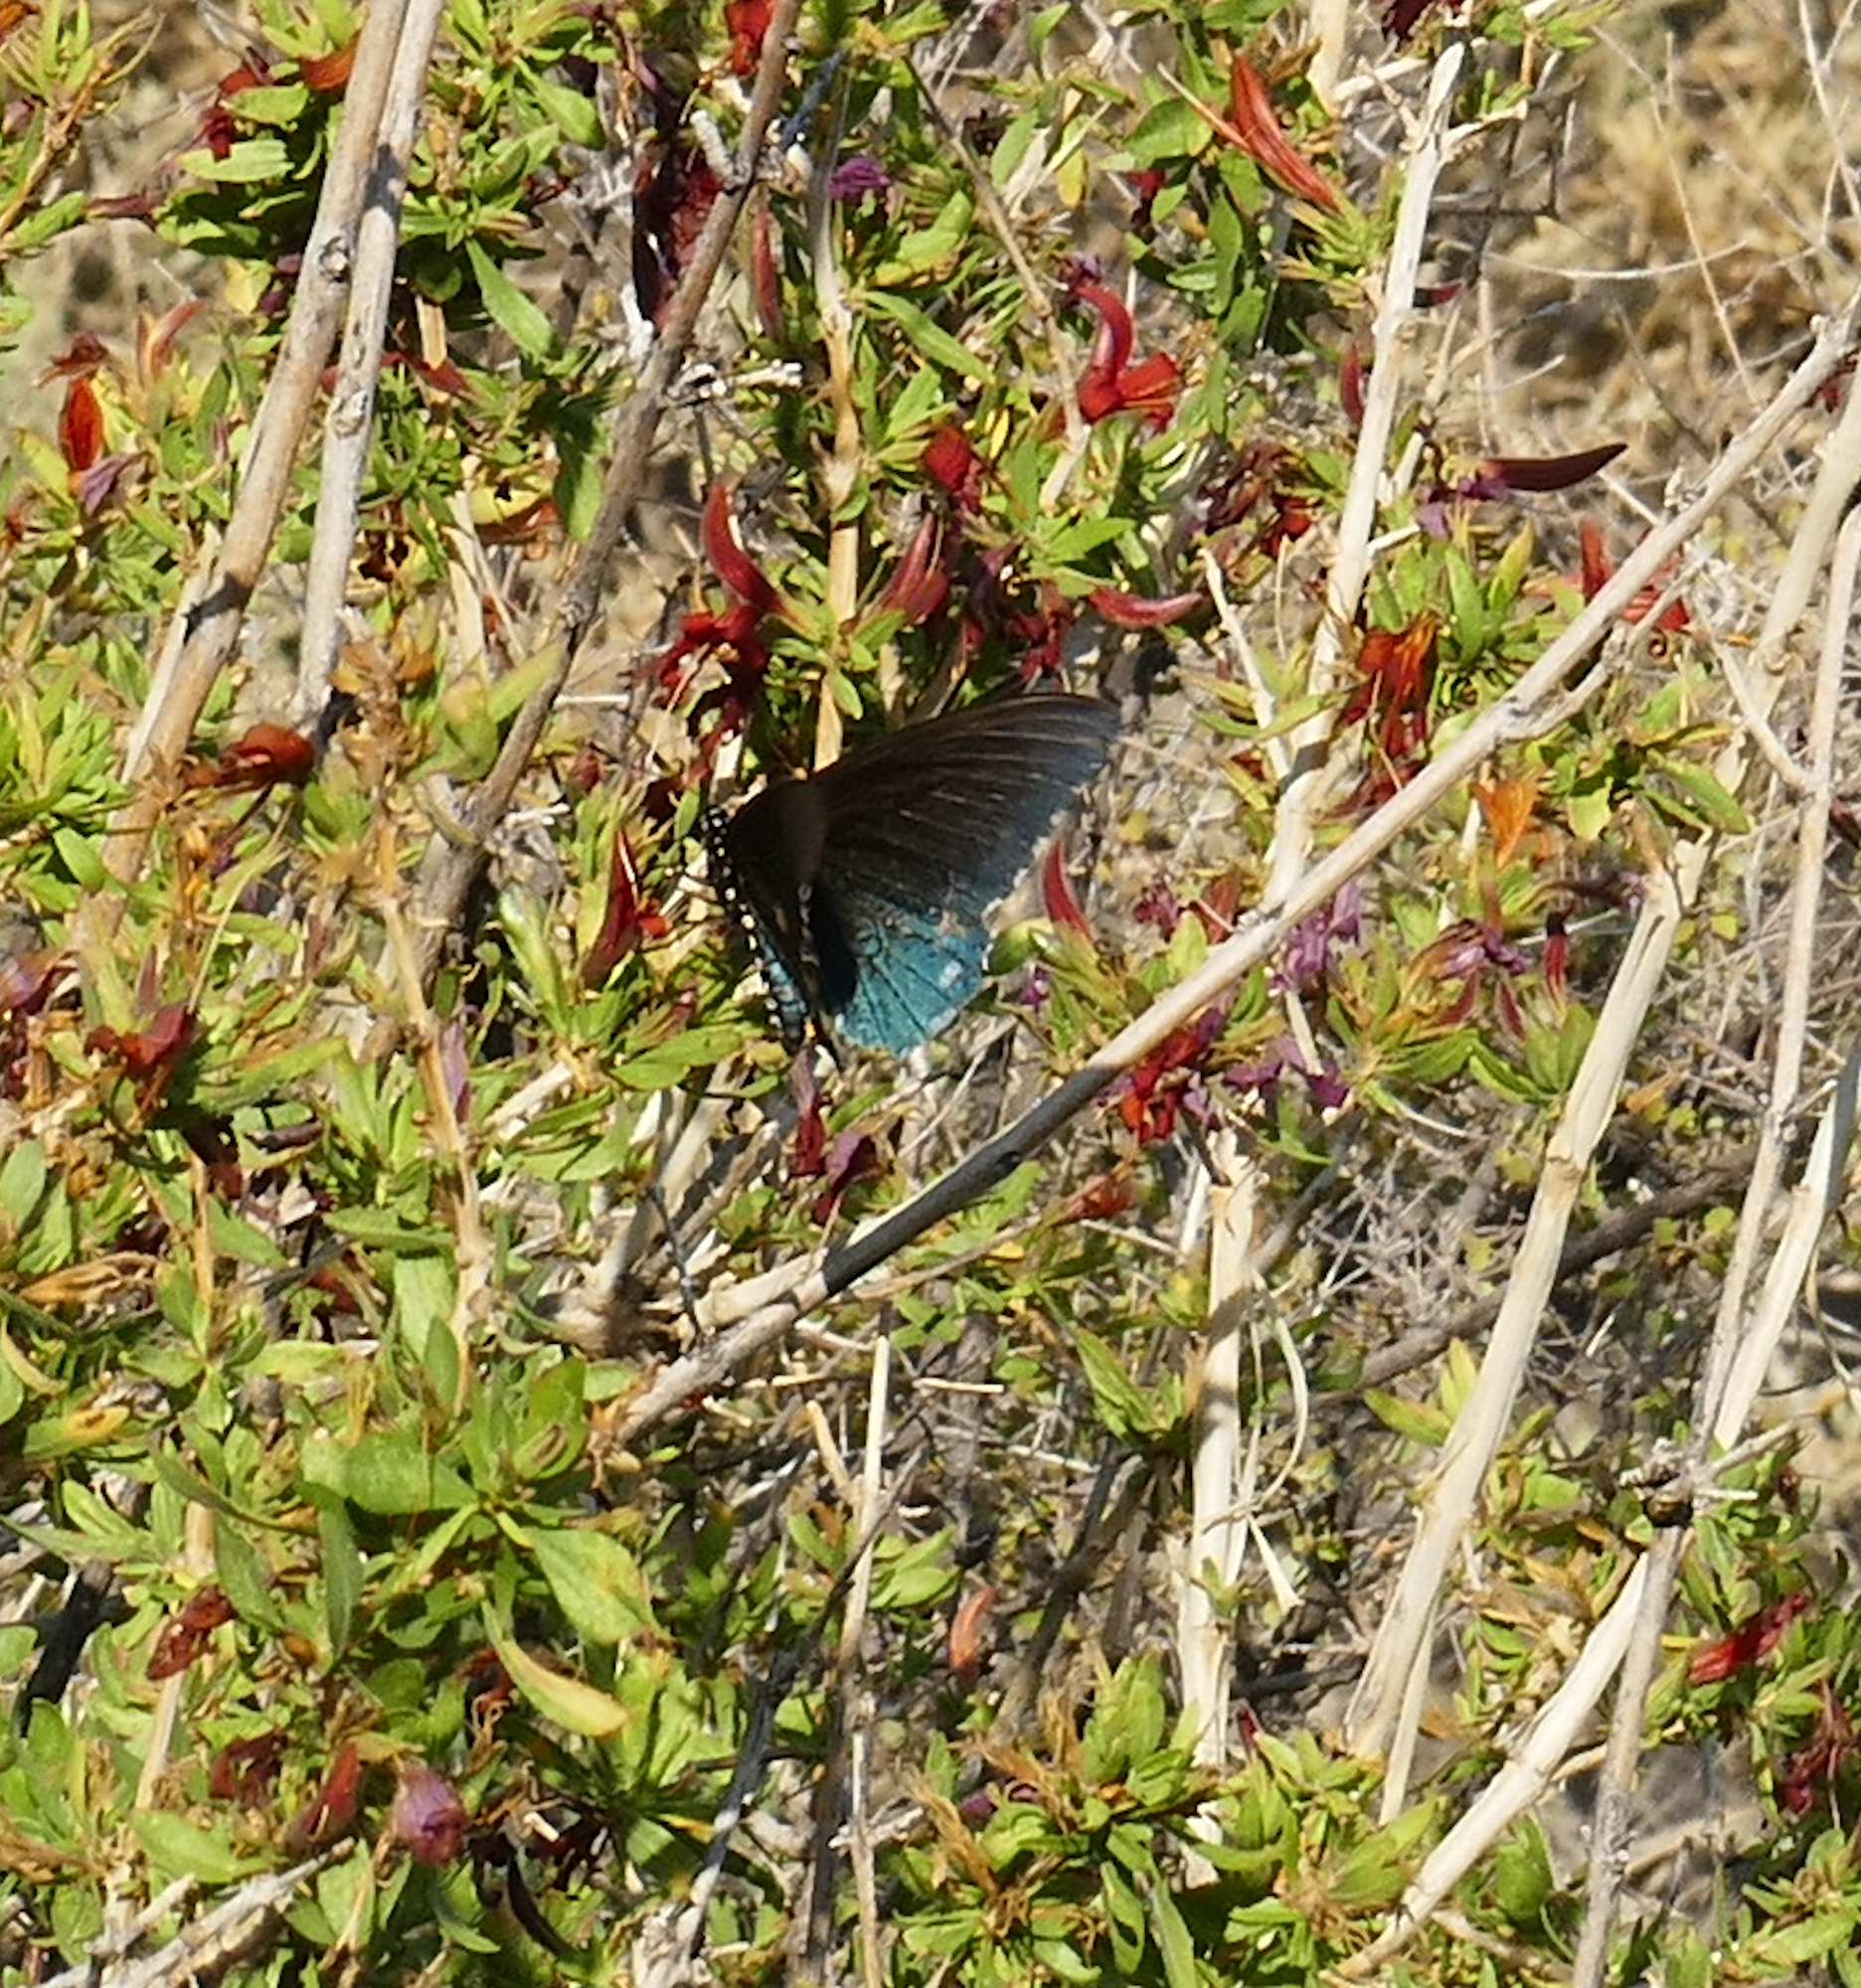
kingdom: Animalia
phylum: Arthropoda
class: Insecta
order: Lepidoptera
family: Papilionidae
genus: Battus
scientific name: Battus philenor
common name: Pipevine swallowtail
